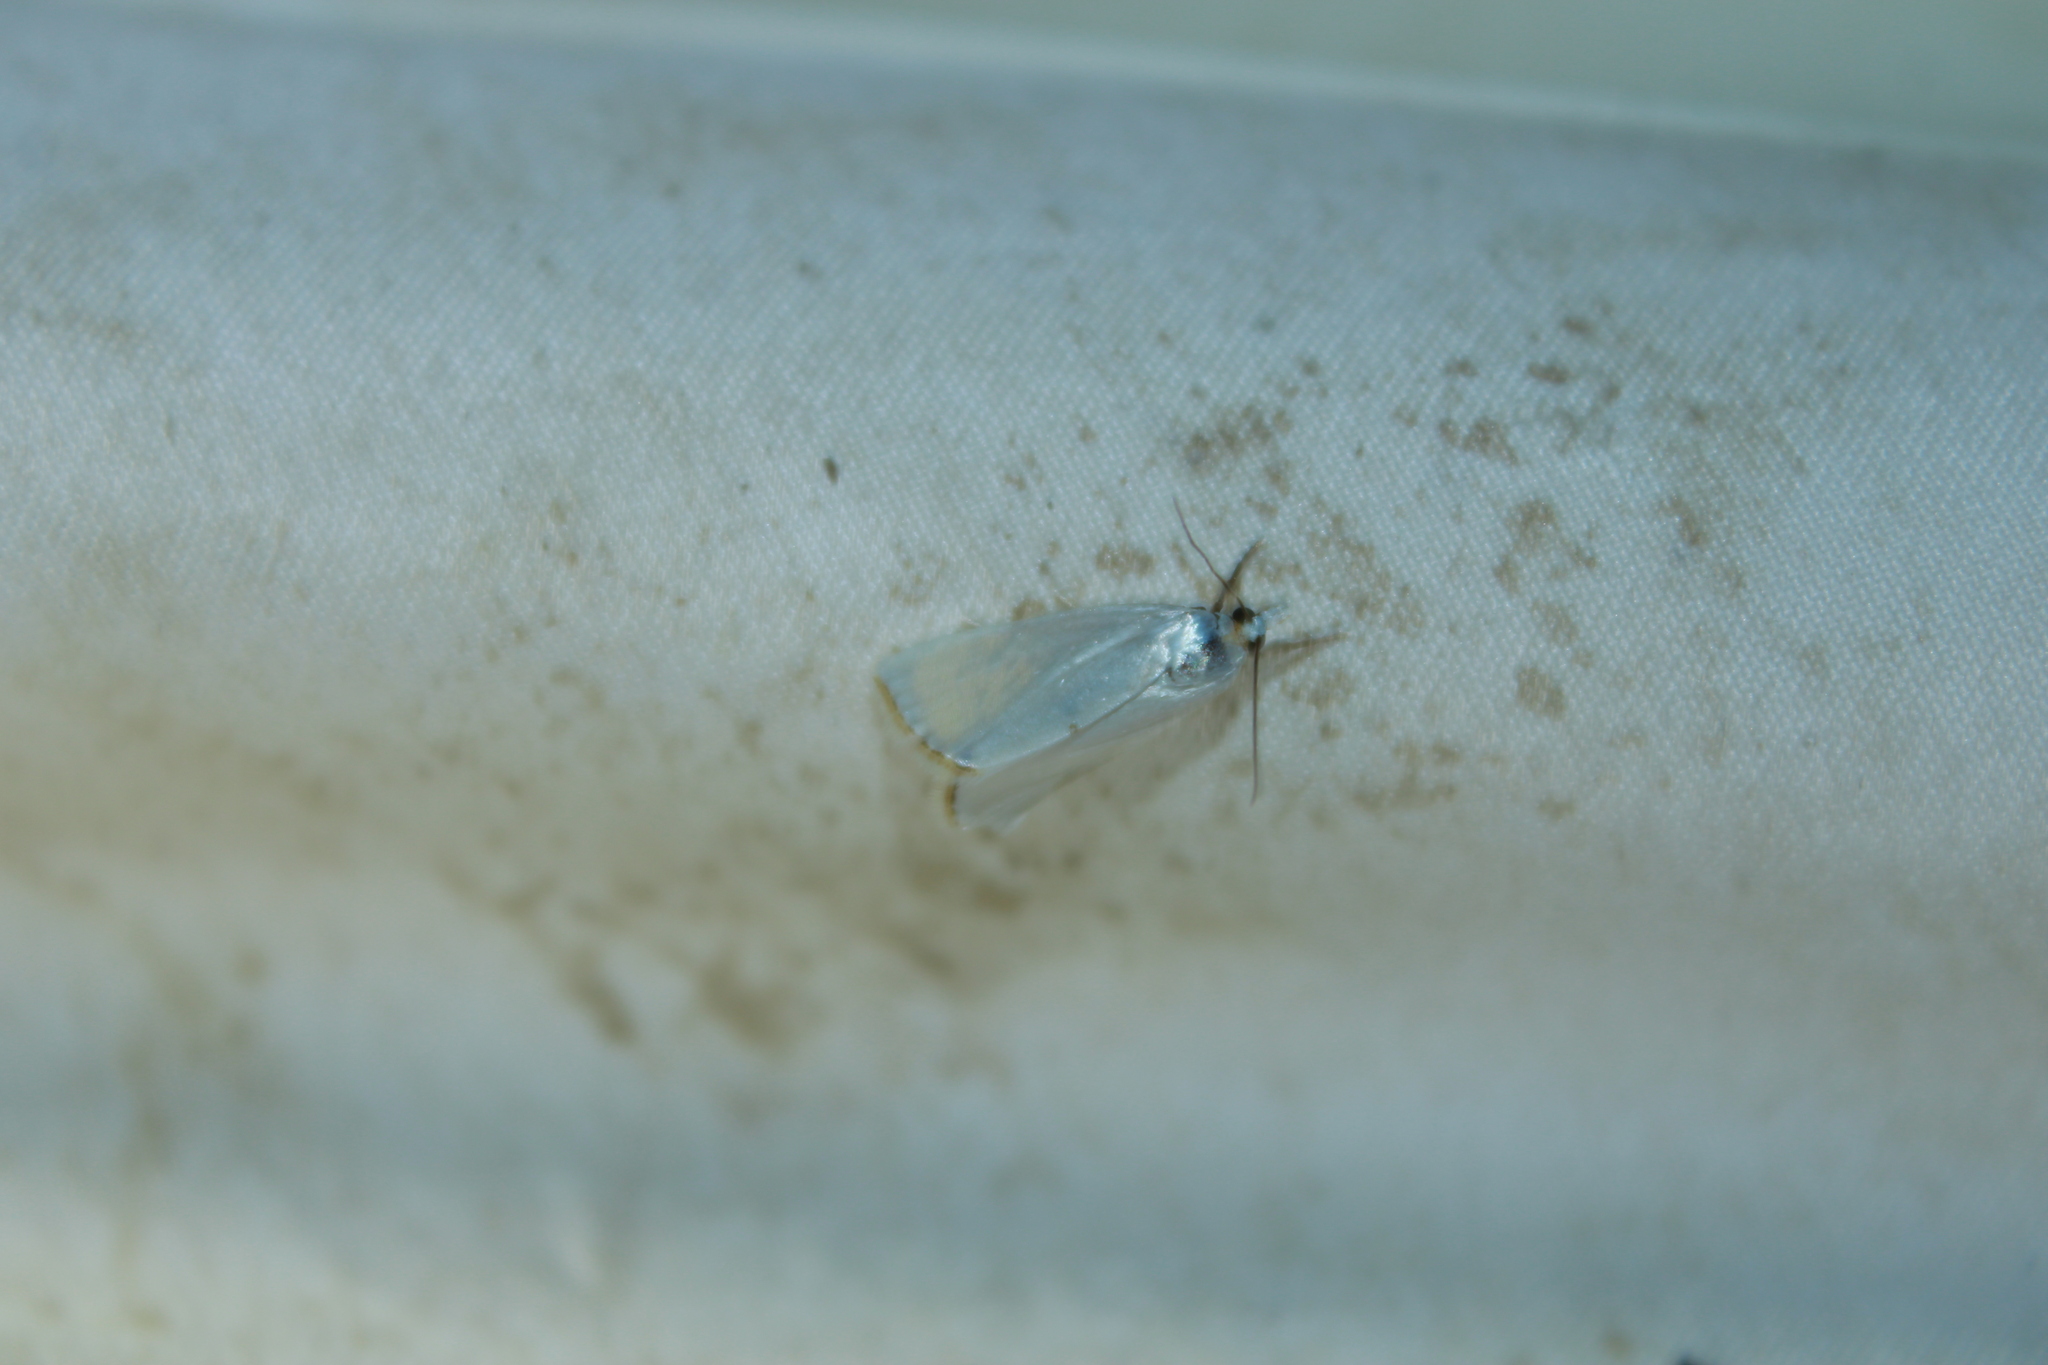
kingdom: Animalia
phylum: Arthropoda
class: Insecta
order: Lepidoptera
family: Crambidae
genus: Argyria
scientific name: Argyria nivalis
